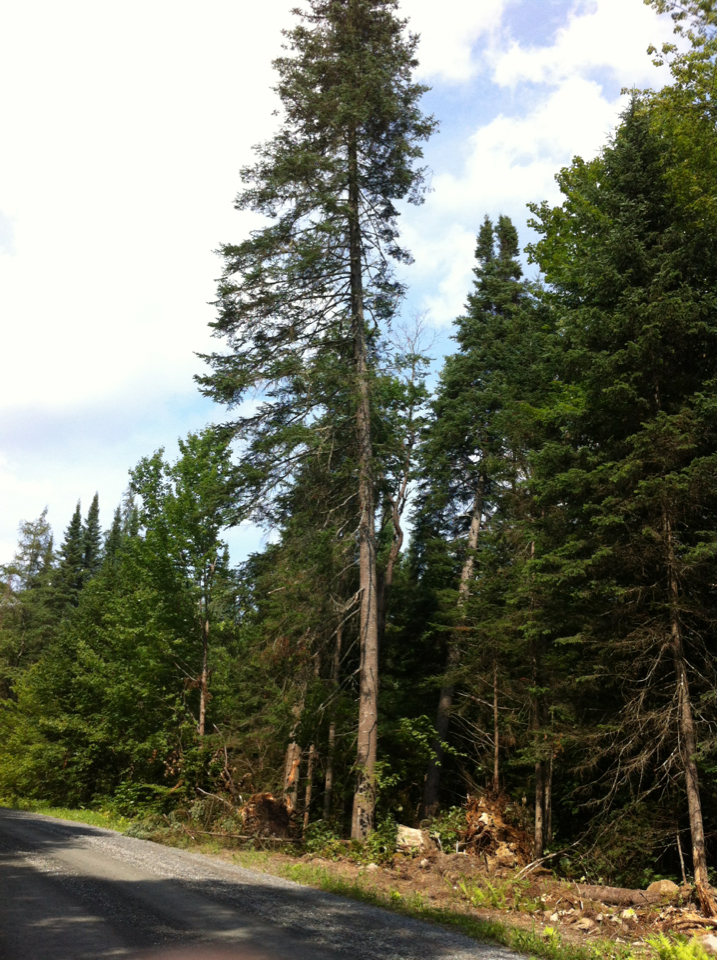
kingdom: Plantae
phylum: Tracheophyta
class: Pinopsida
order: Pinales
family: Pinaceae
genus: Abies
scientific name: Abies balsamea
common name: Balsam fir
